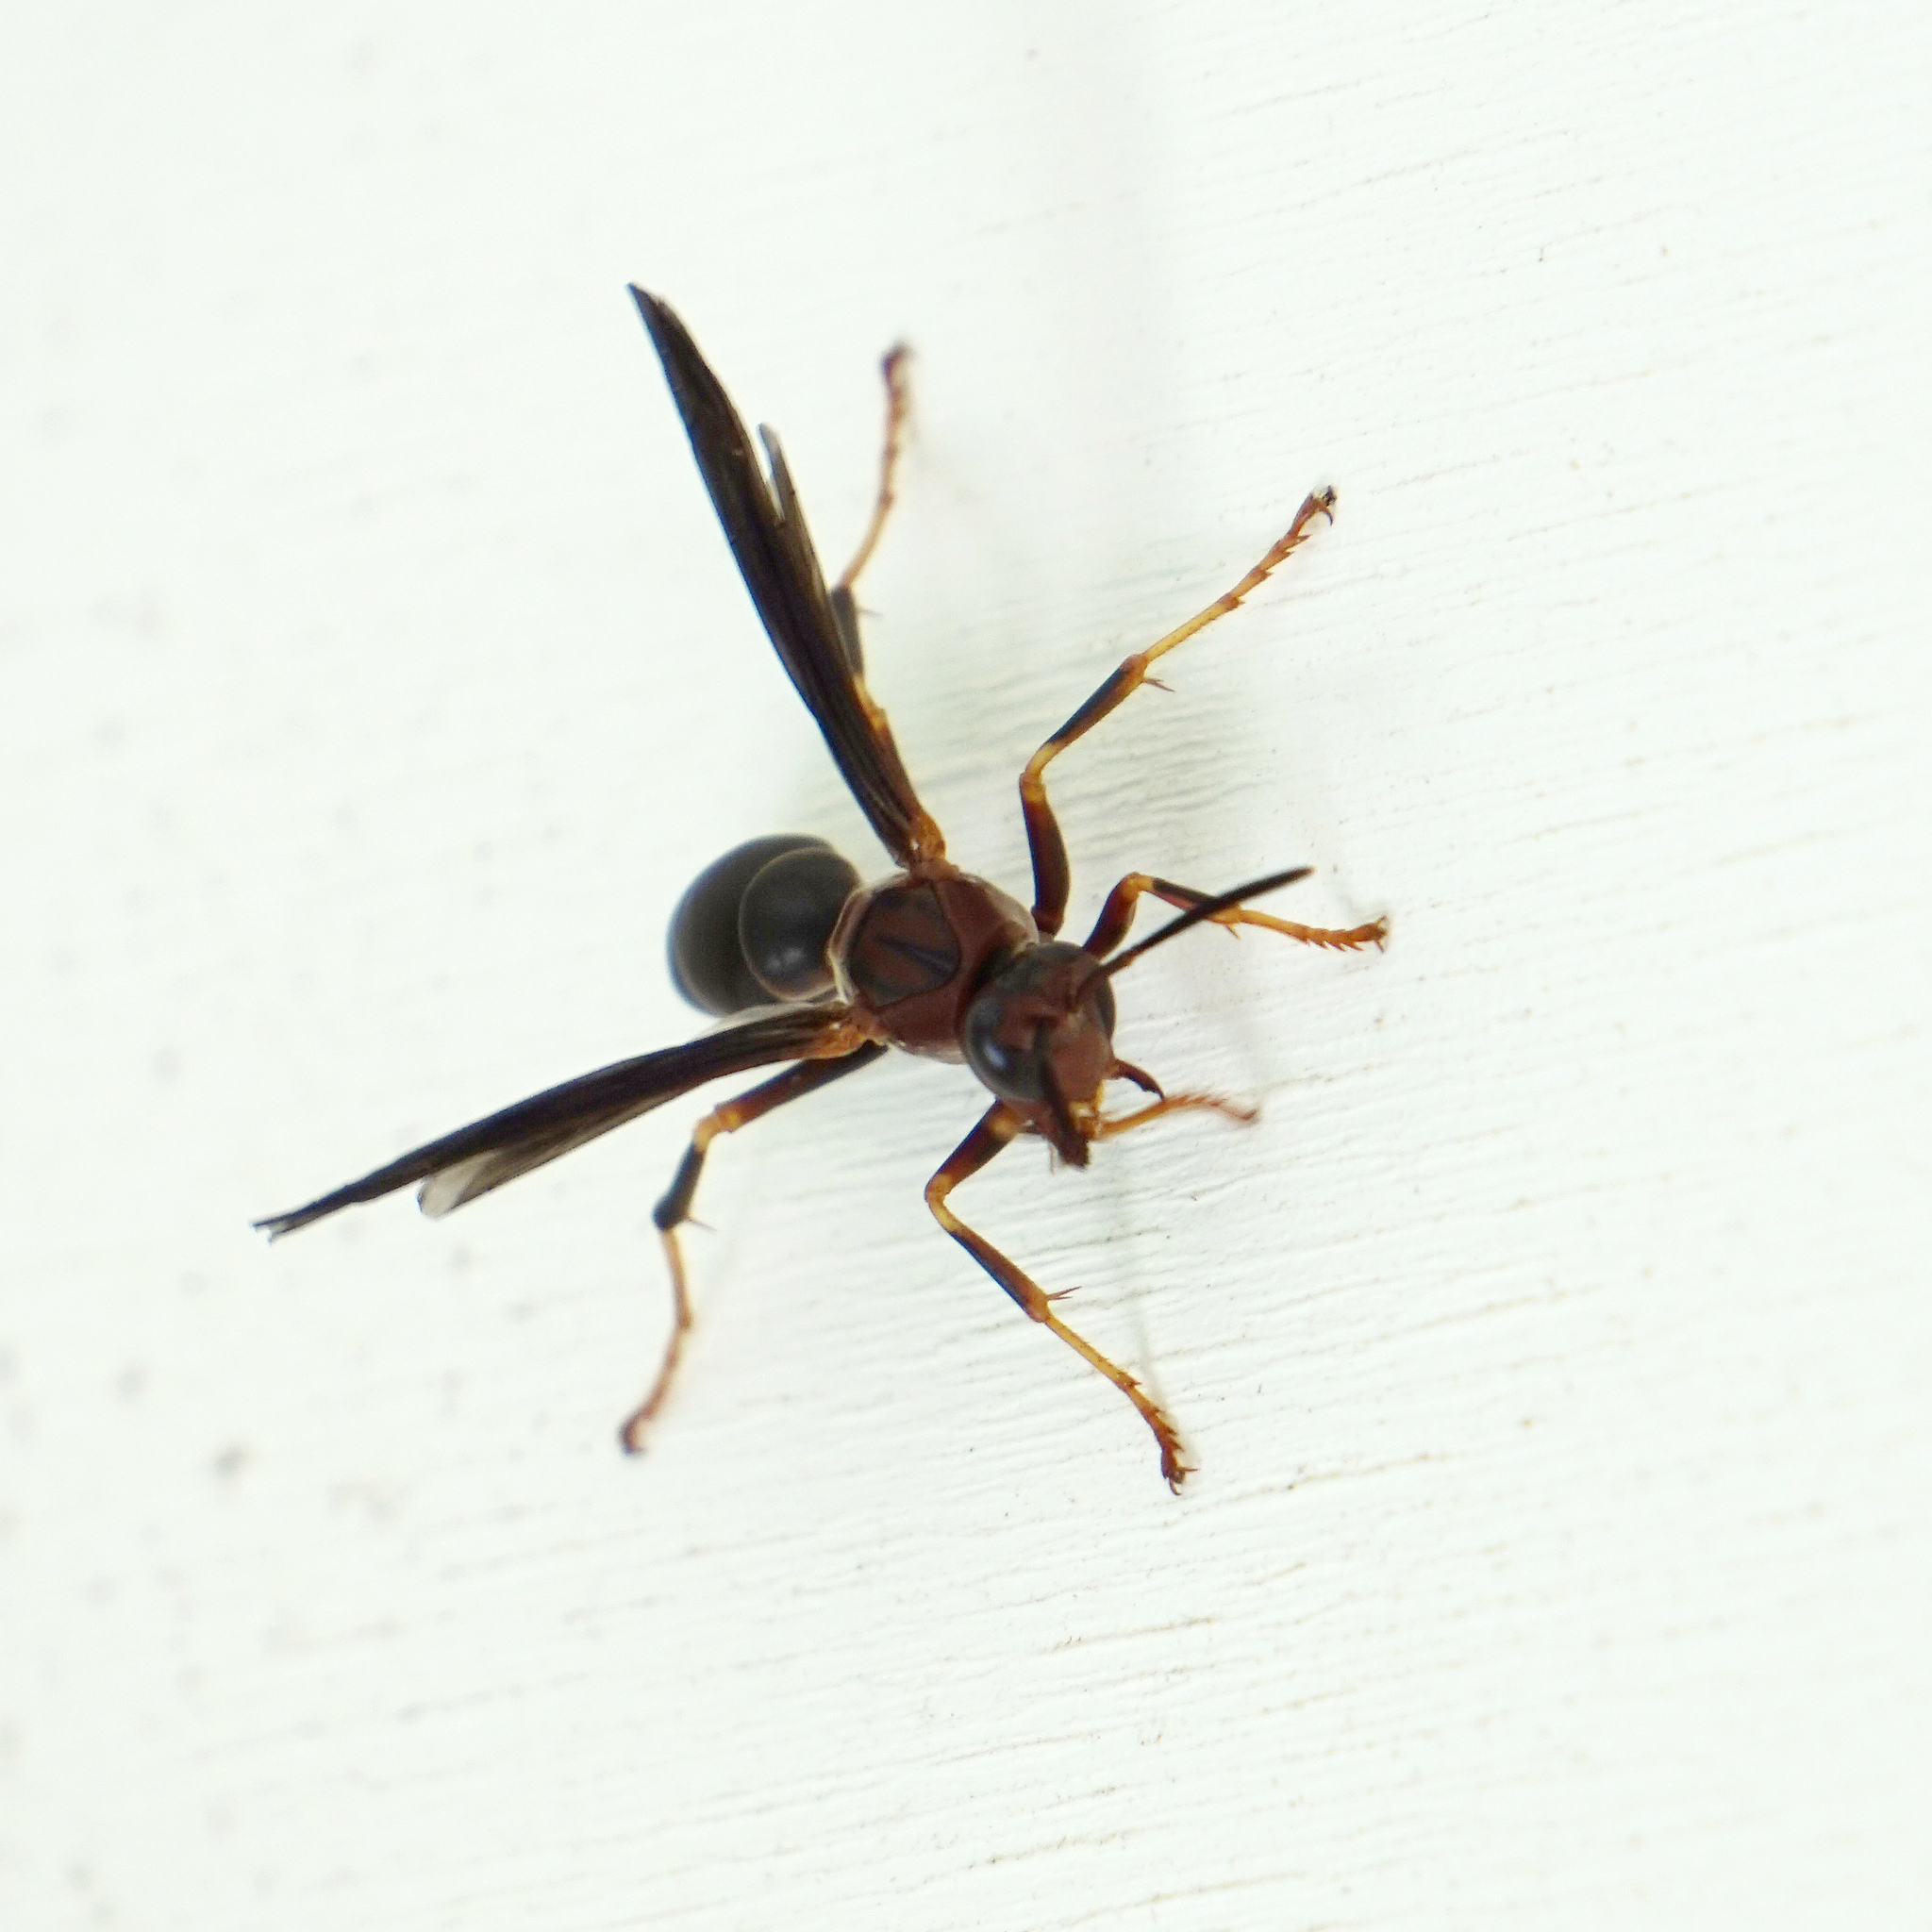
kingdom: Animalia
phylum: Arthropoda
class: Insecta
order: Hymenoptera
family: Eumenidae
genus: Polistes
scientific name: Polistes metricus
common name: Metric paper wasp
